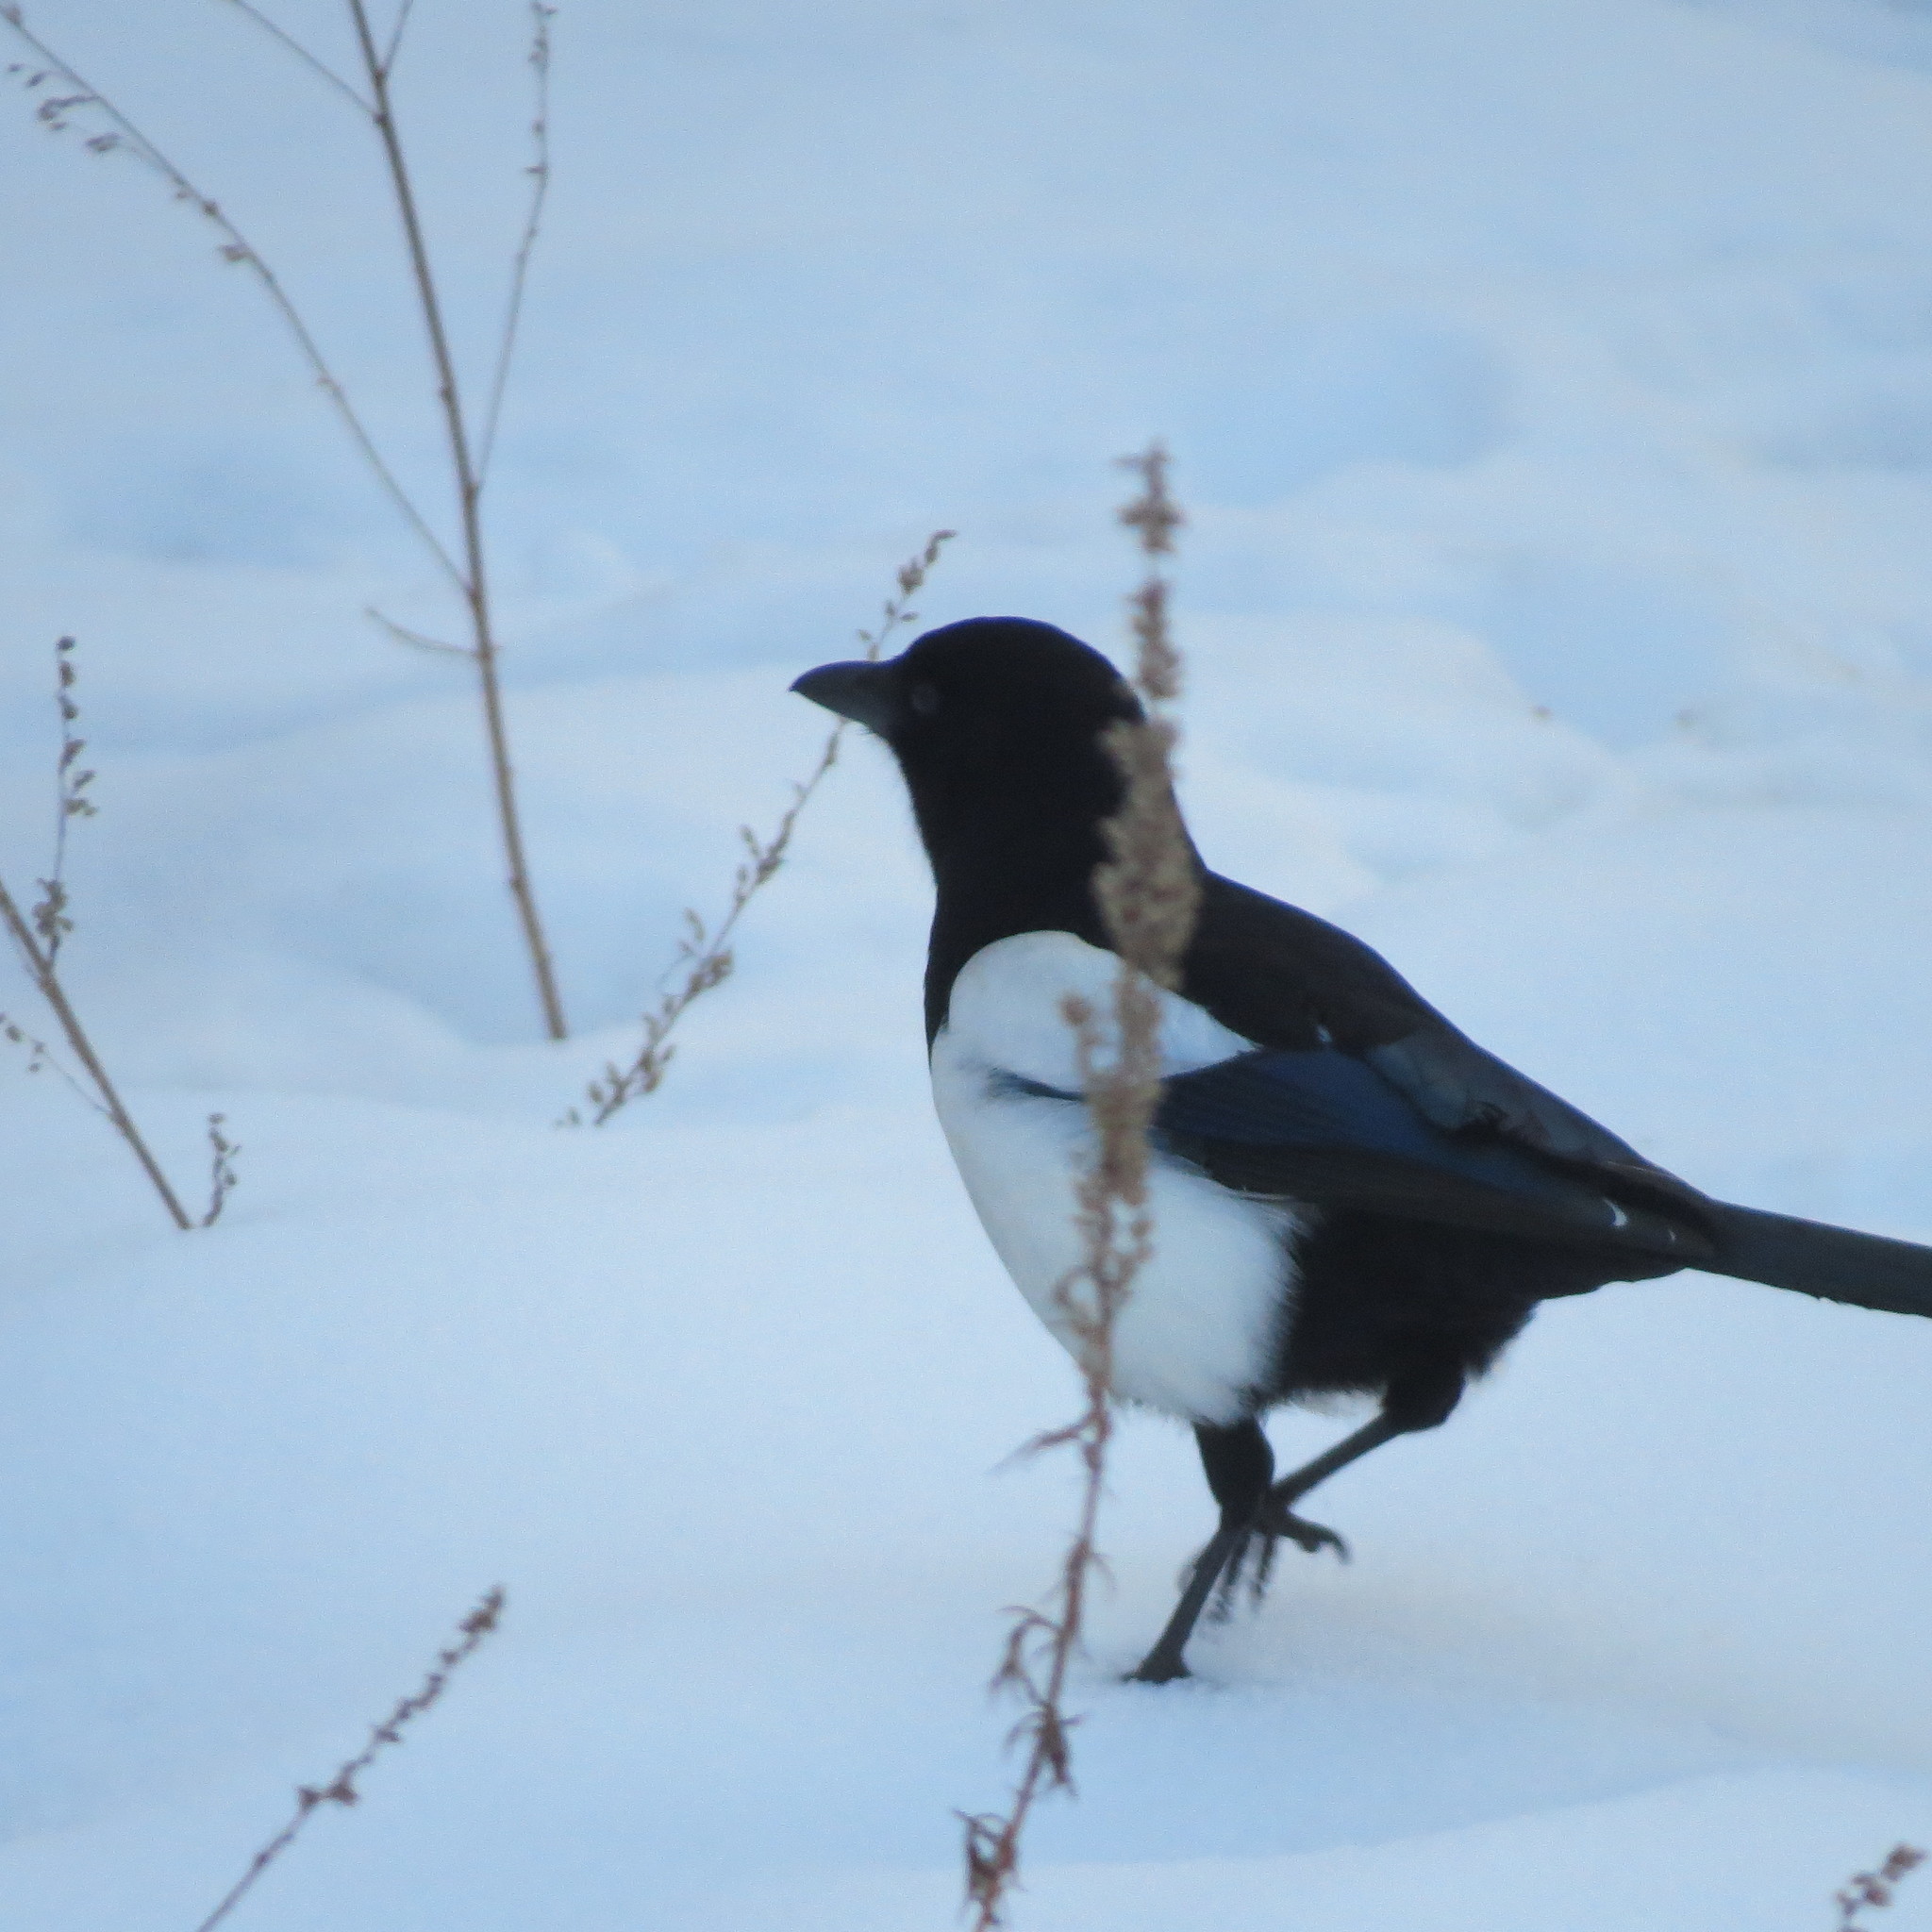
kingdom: Animalia
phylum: Chordata
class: Aves
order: Passeriformes
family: Corvidae
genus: Pica
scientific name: Pica pica
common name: Eurasian magpie
